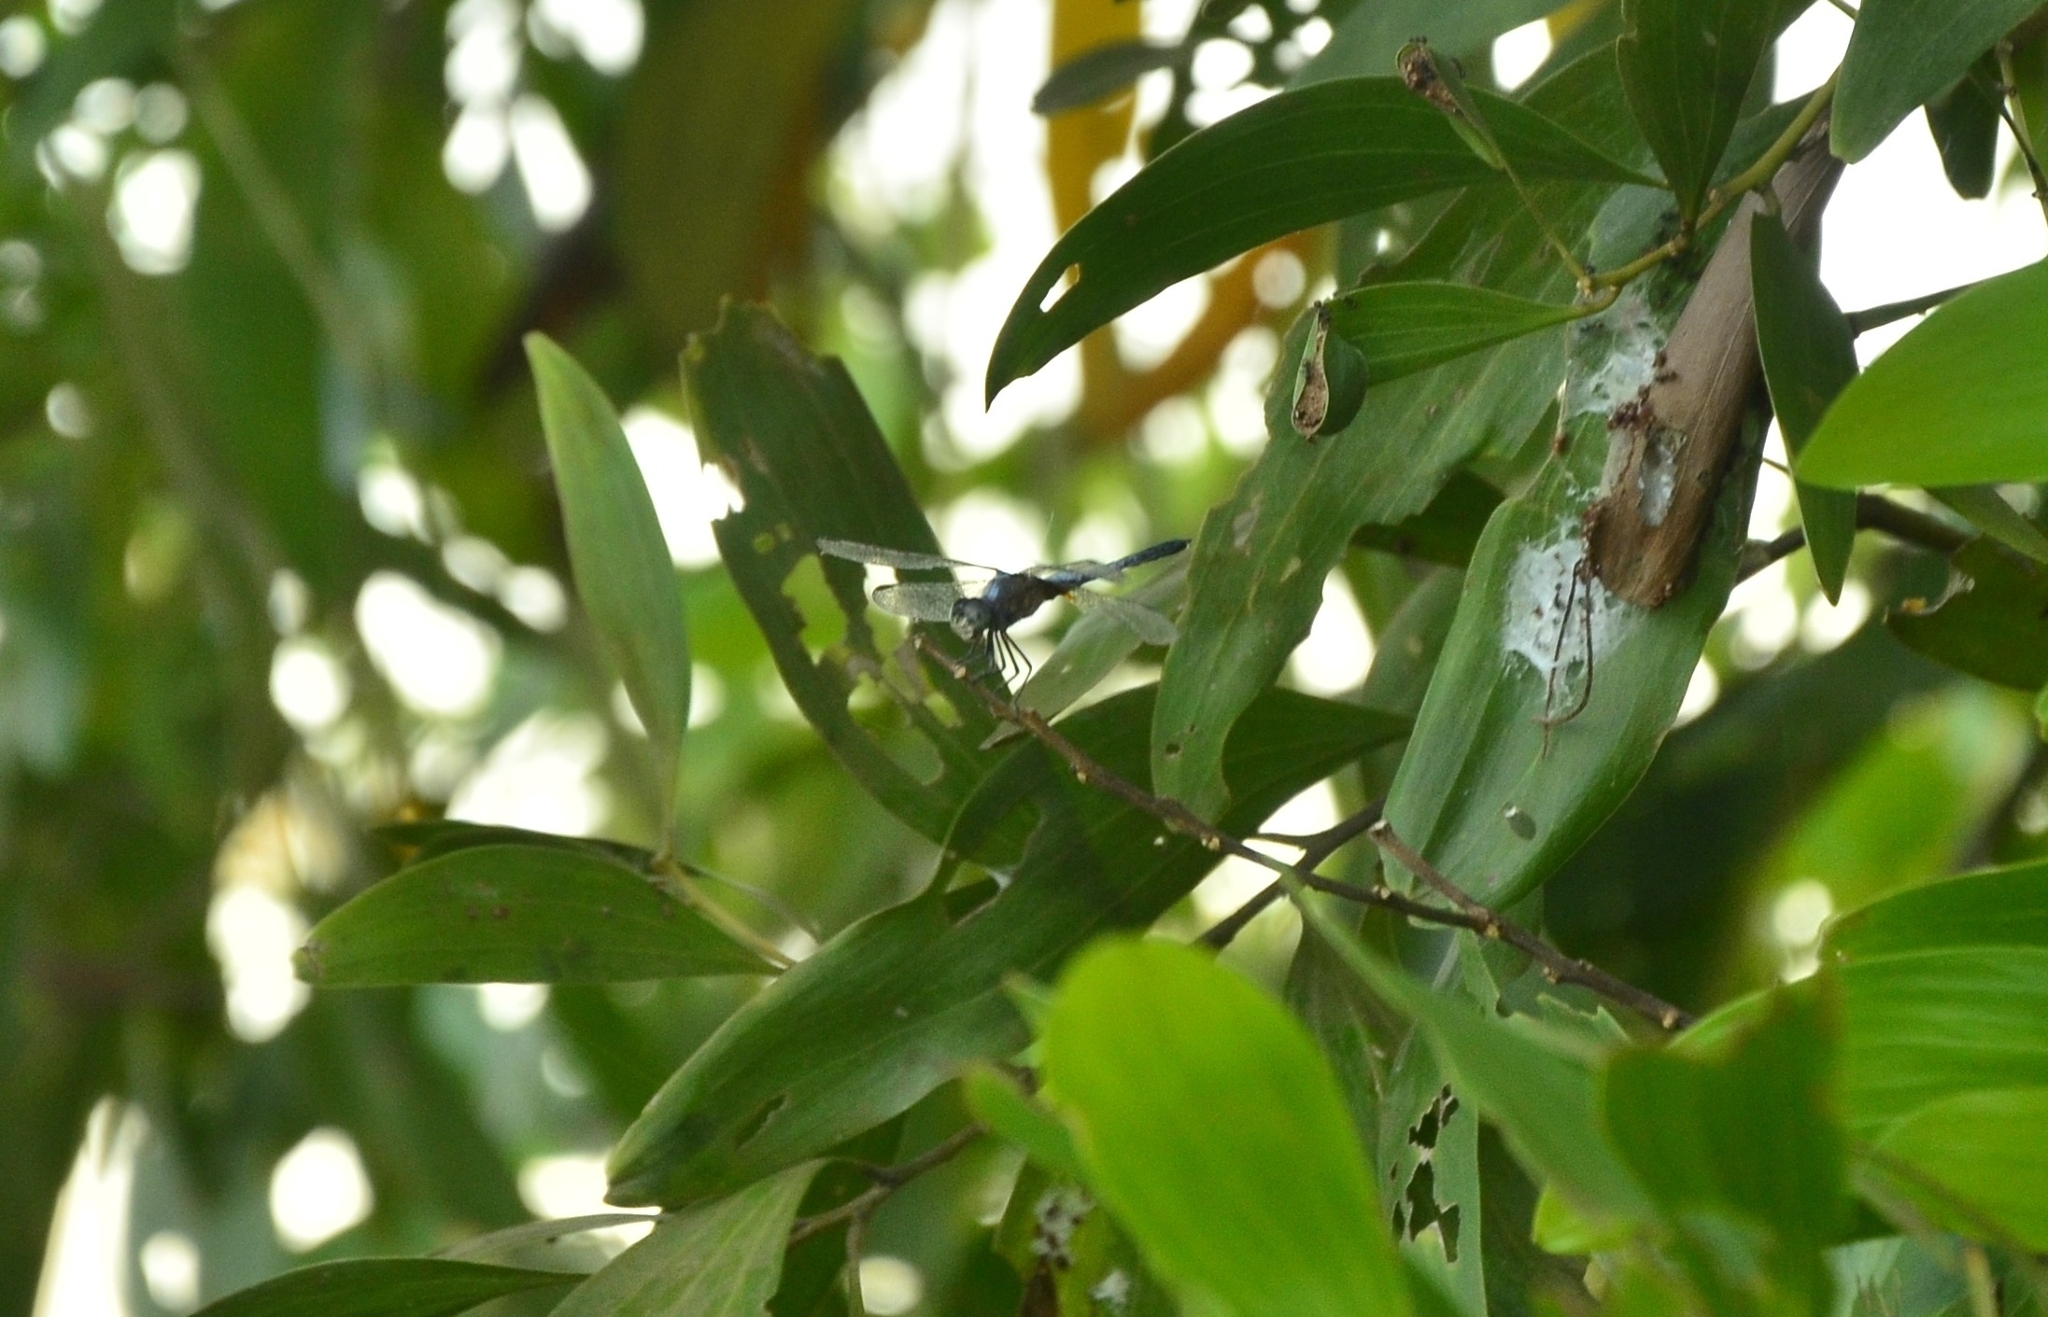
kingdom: Animalia
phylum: Arthropoda
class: Insecta
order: Odonata
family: Libellulidae
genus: Brachydiplax
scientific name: Brachydiplax chalybea
